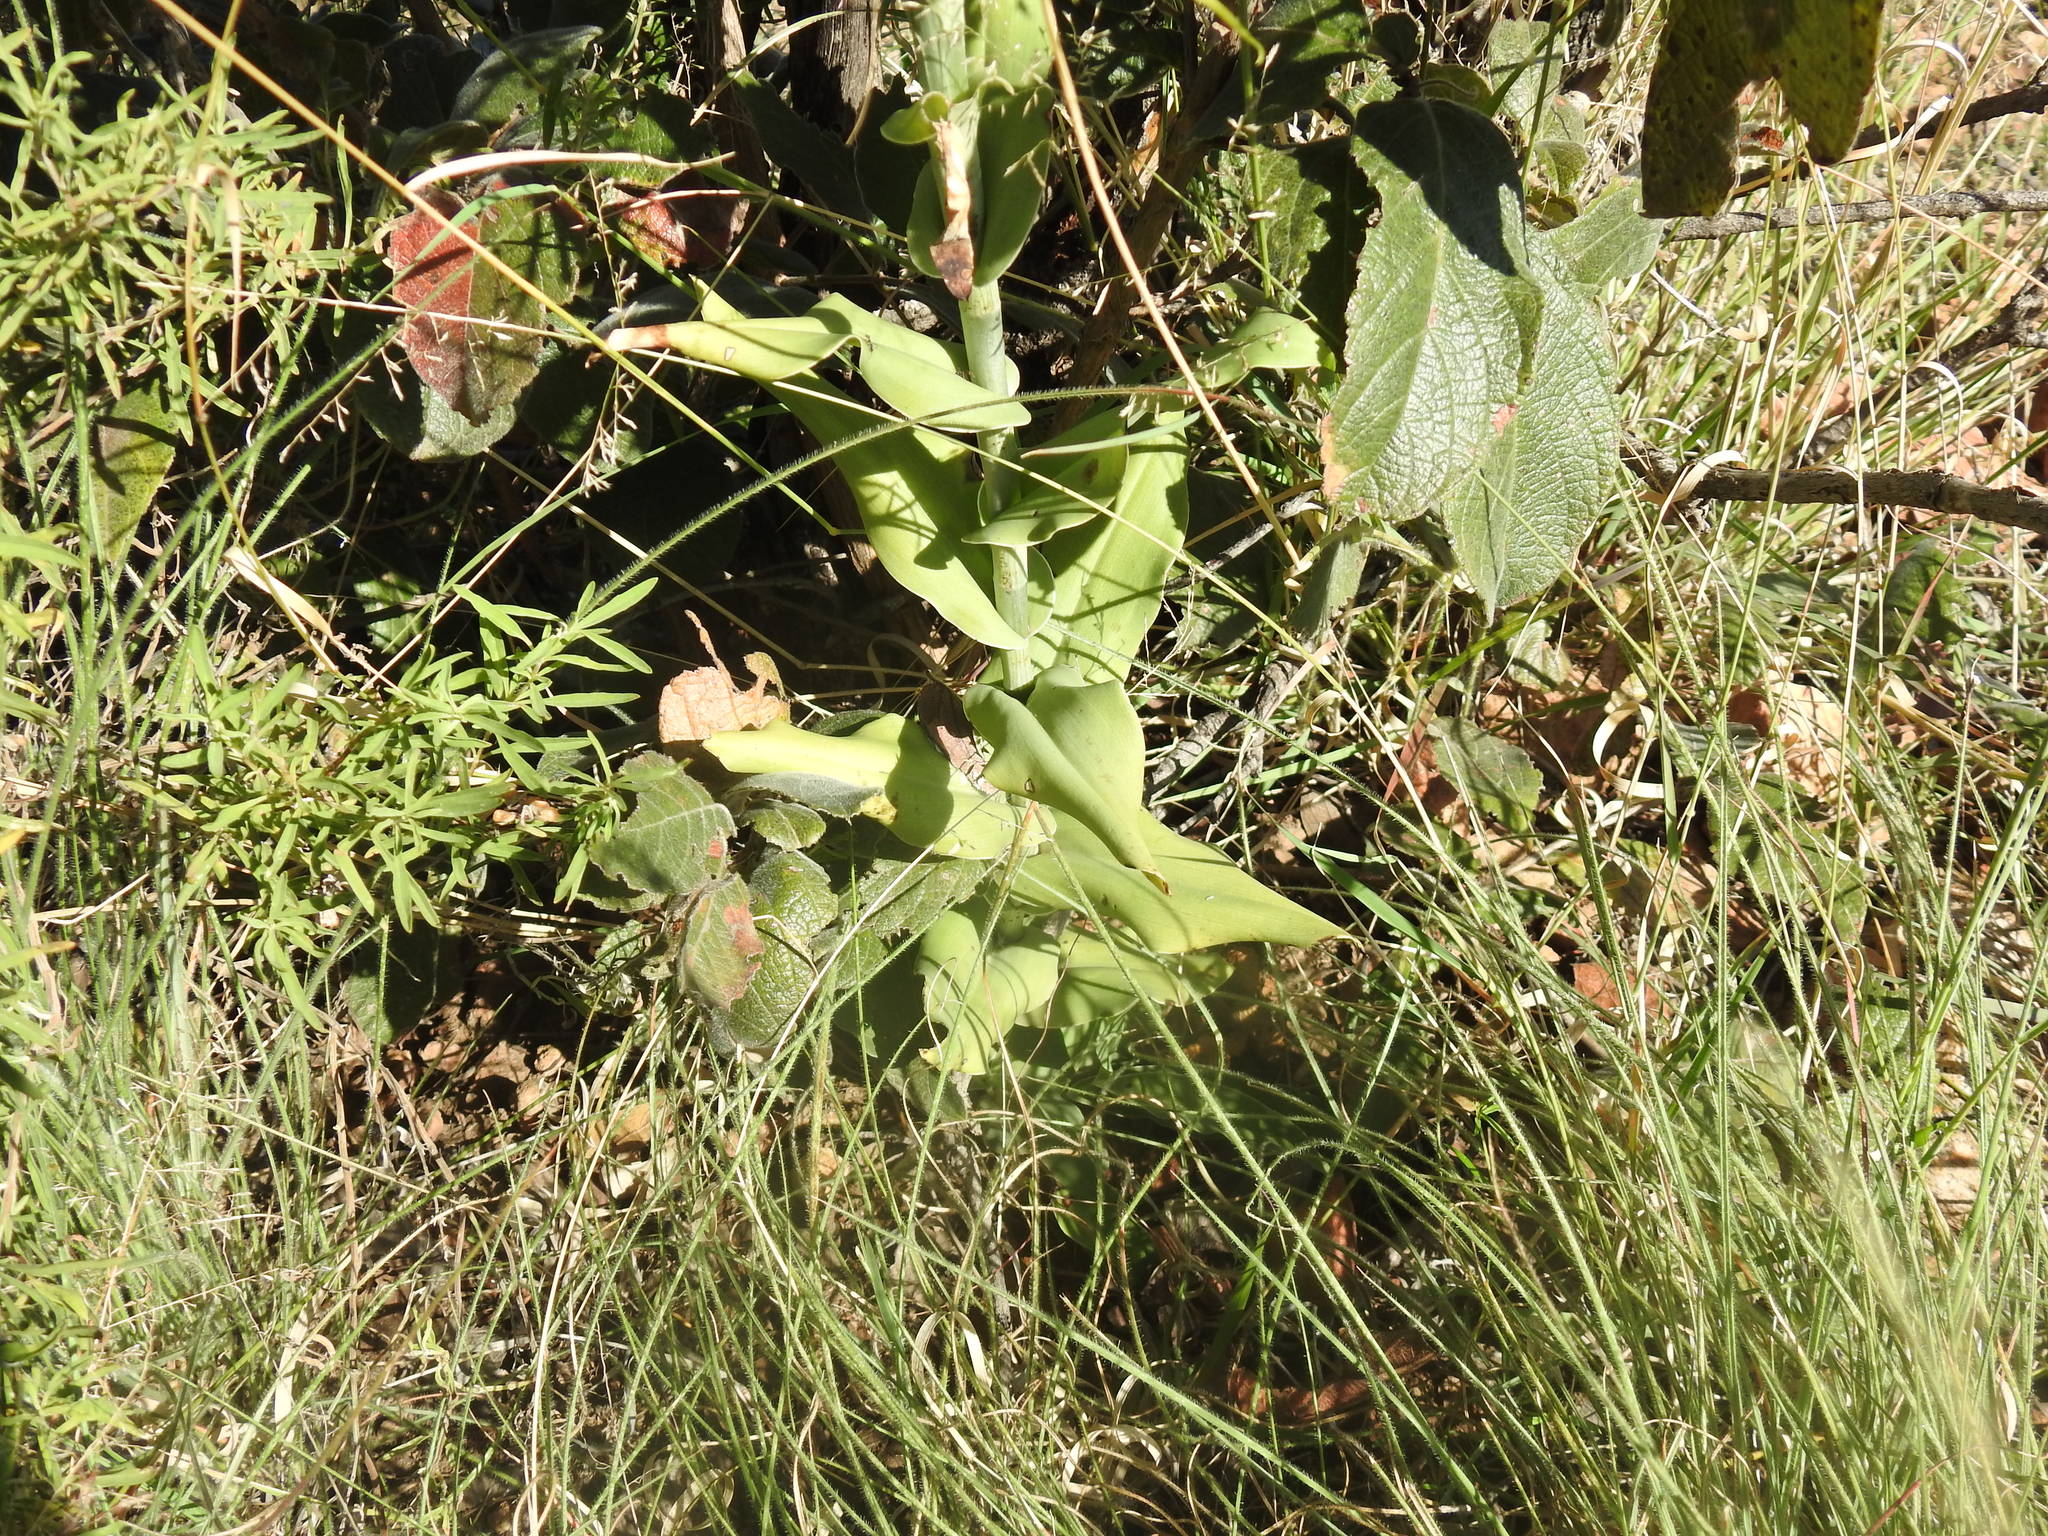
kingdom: Plantae
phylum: Tracheophyta
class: Liliopsida
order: Asparagales
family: Orchidaceae
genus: Bonatea
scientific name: Bonatea antennifera
